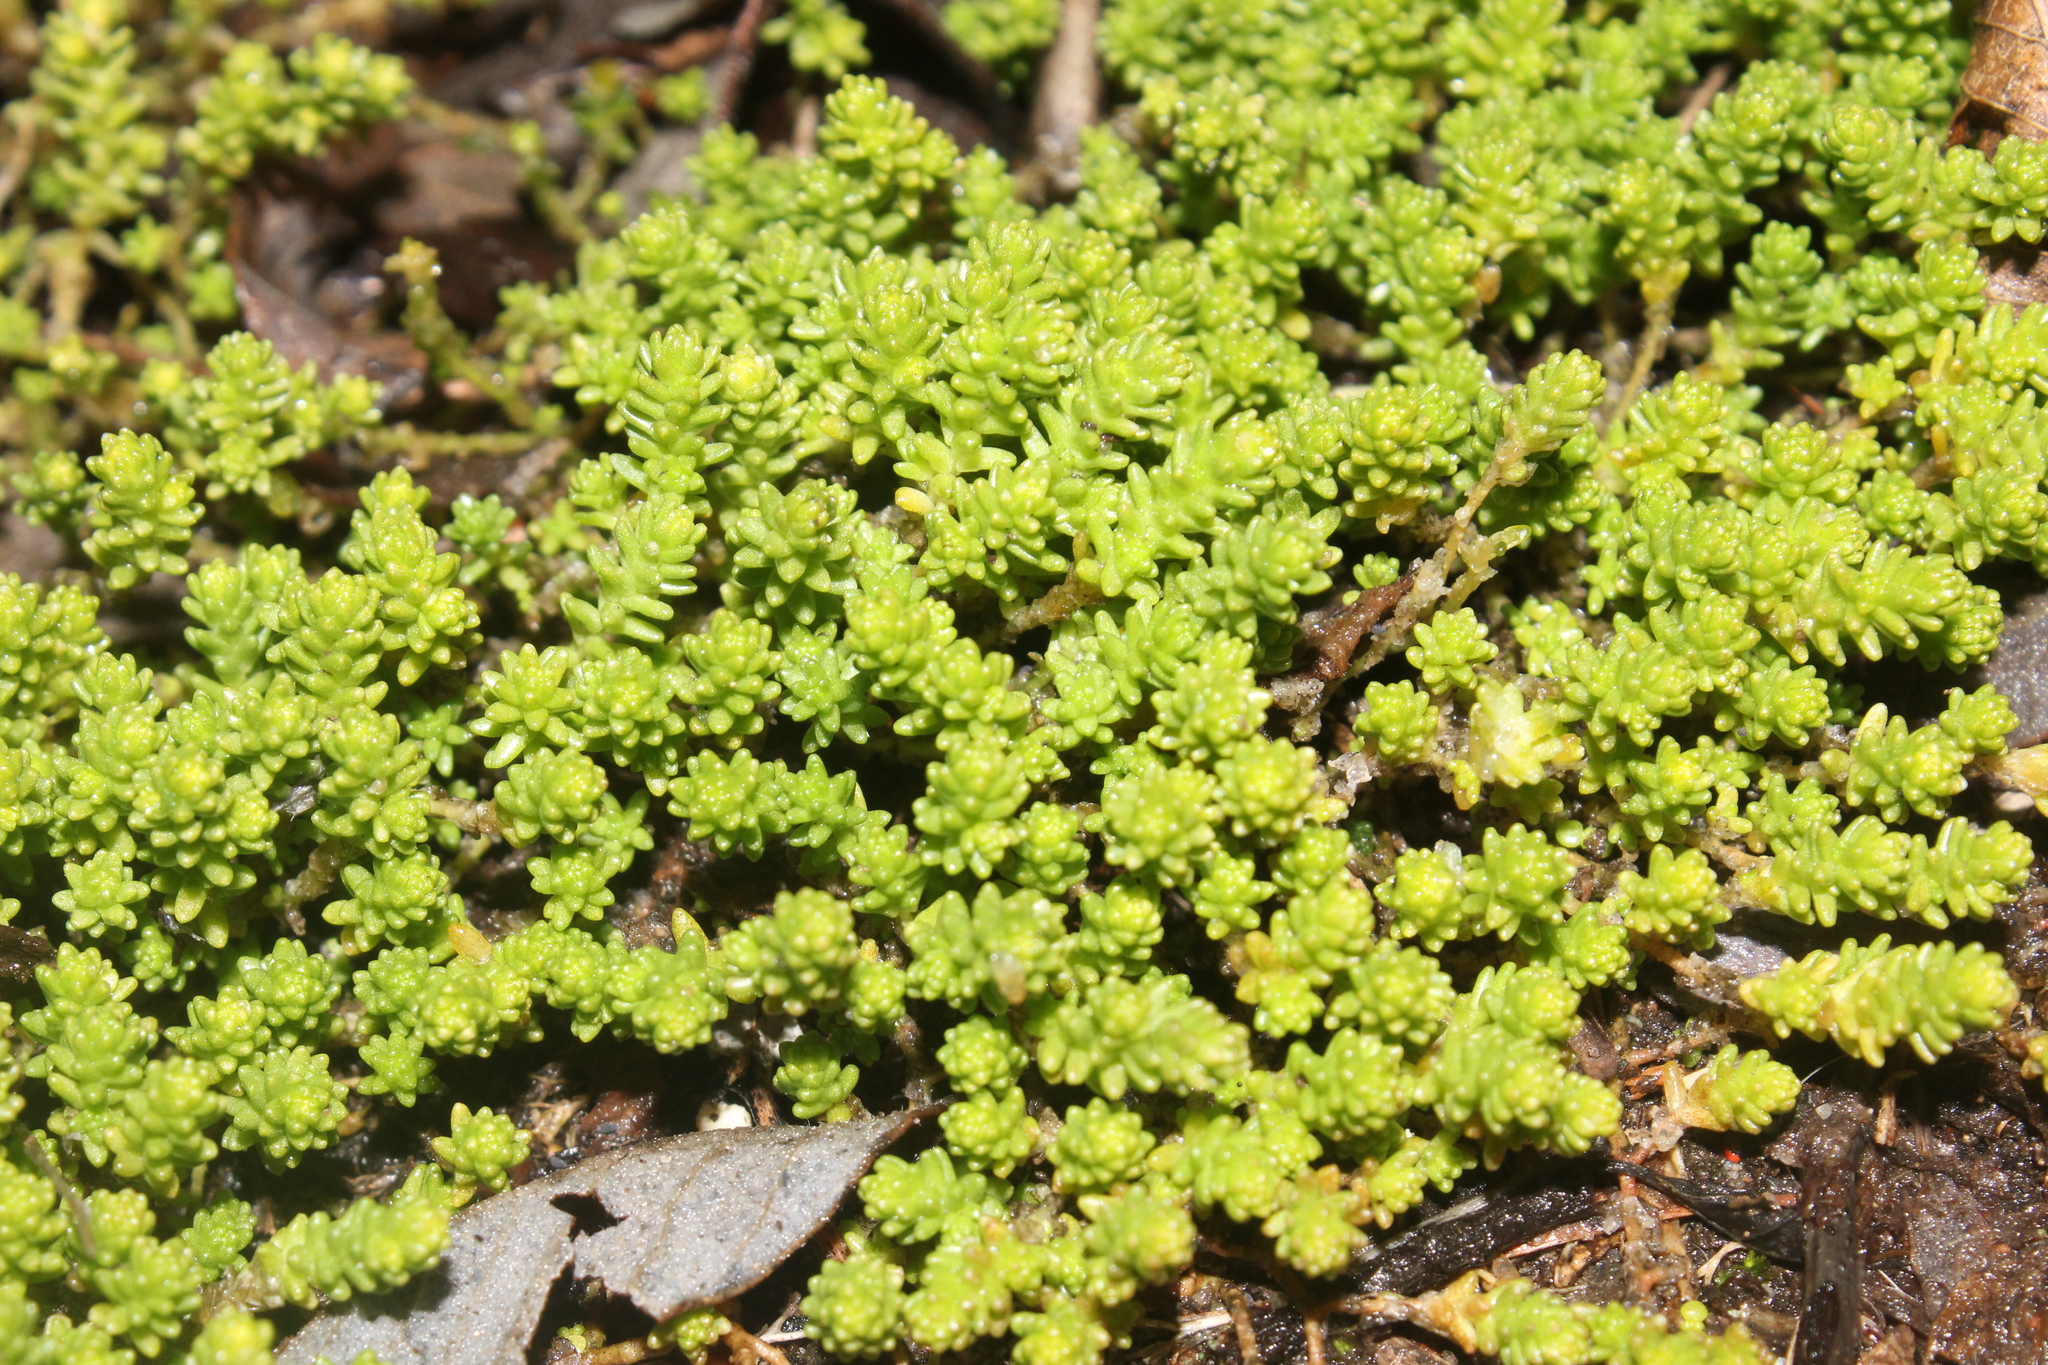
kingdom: Plantae
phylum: Tracheophyta
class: Magnoliopsida
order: Saxifragales
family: Crassulaceae
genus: Sedum
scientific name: Sedum acre
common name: Biting stonecrop
